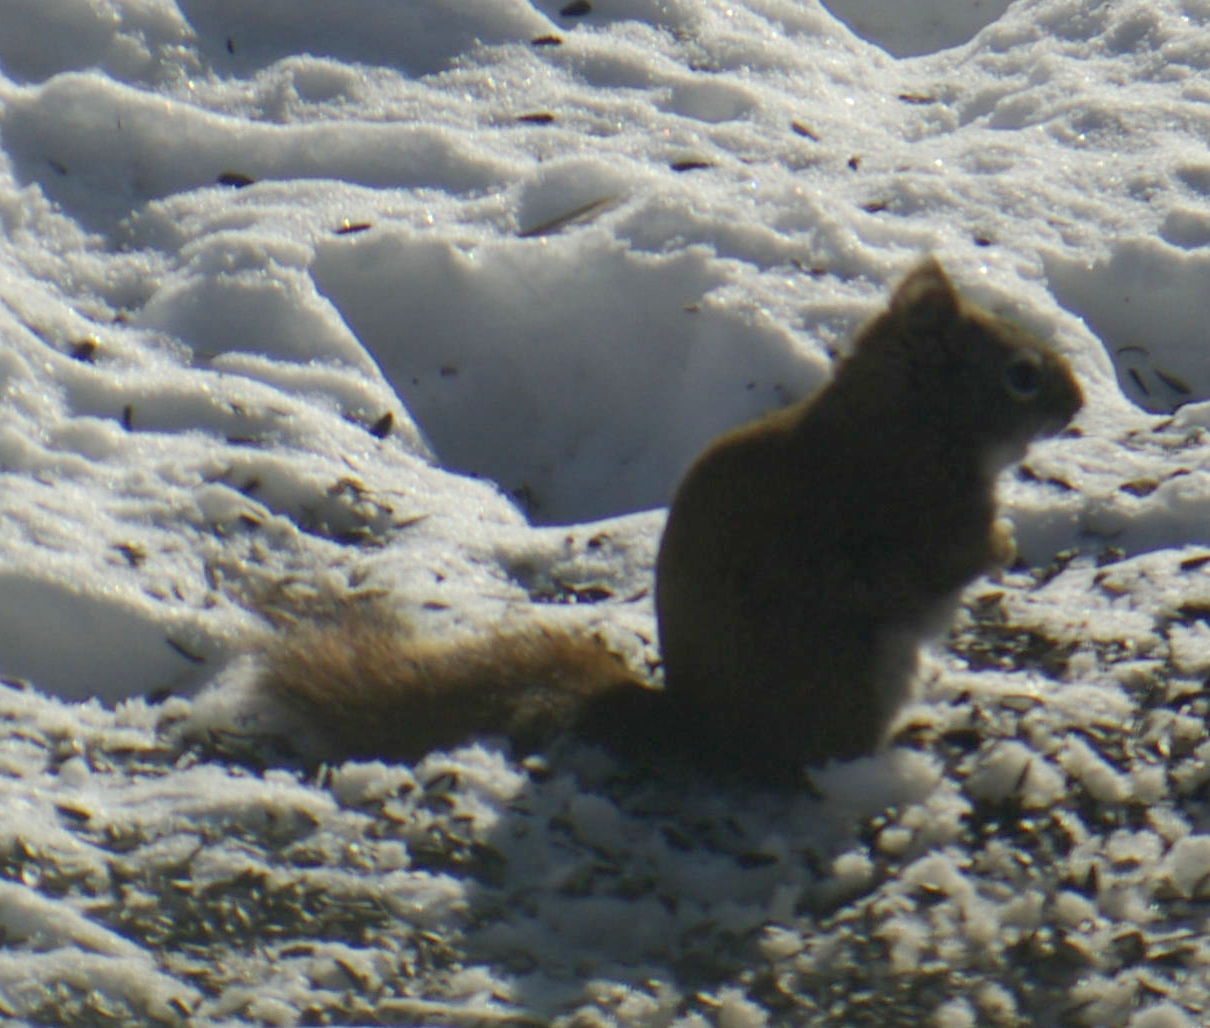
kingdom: Animalia
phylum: Chordata
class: Mammalia
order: Rodentia
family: Sciuridae
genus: Tamiasciurus
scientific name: Tamiasciurus hudsonicus
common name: Red squirrel
